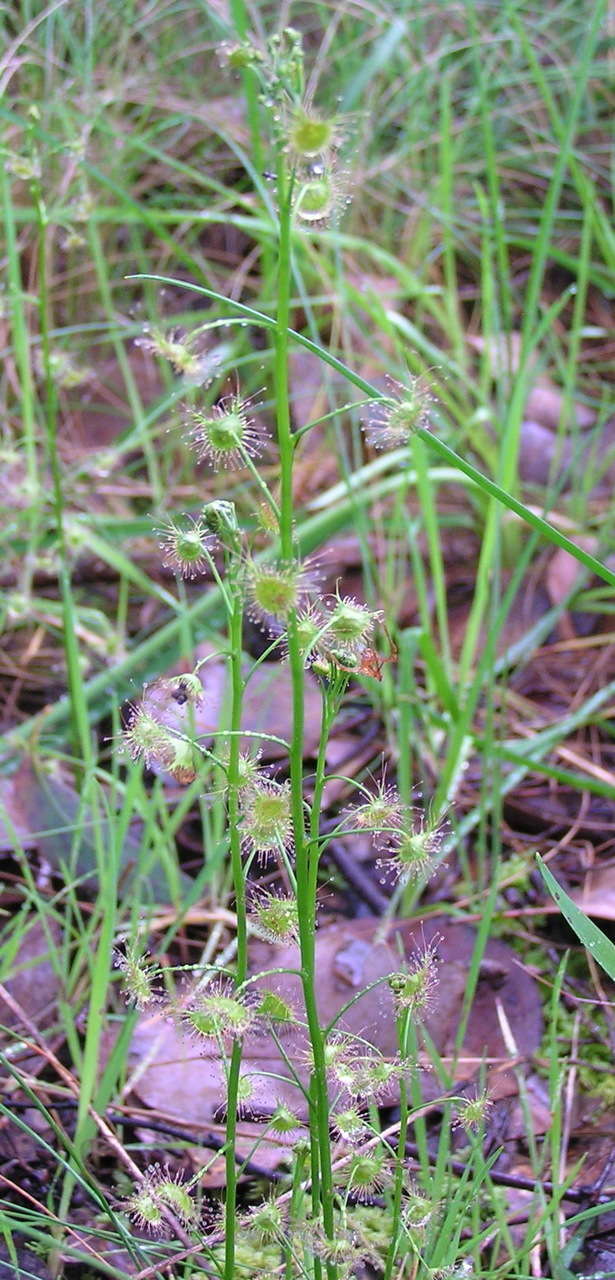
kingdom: Plantae
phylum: Tracheophyta
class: Magnoliopsida
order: Caryophyllales
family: Droseraceae
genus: Drosera
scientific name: Drosera peltata
